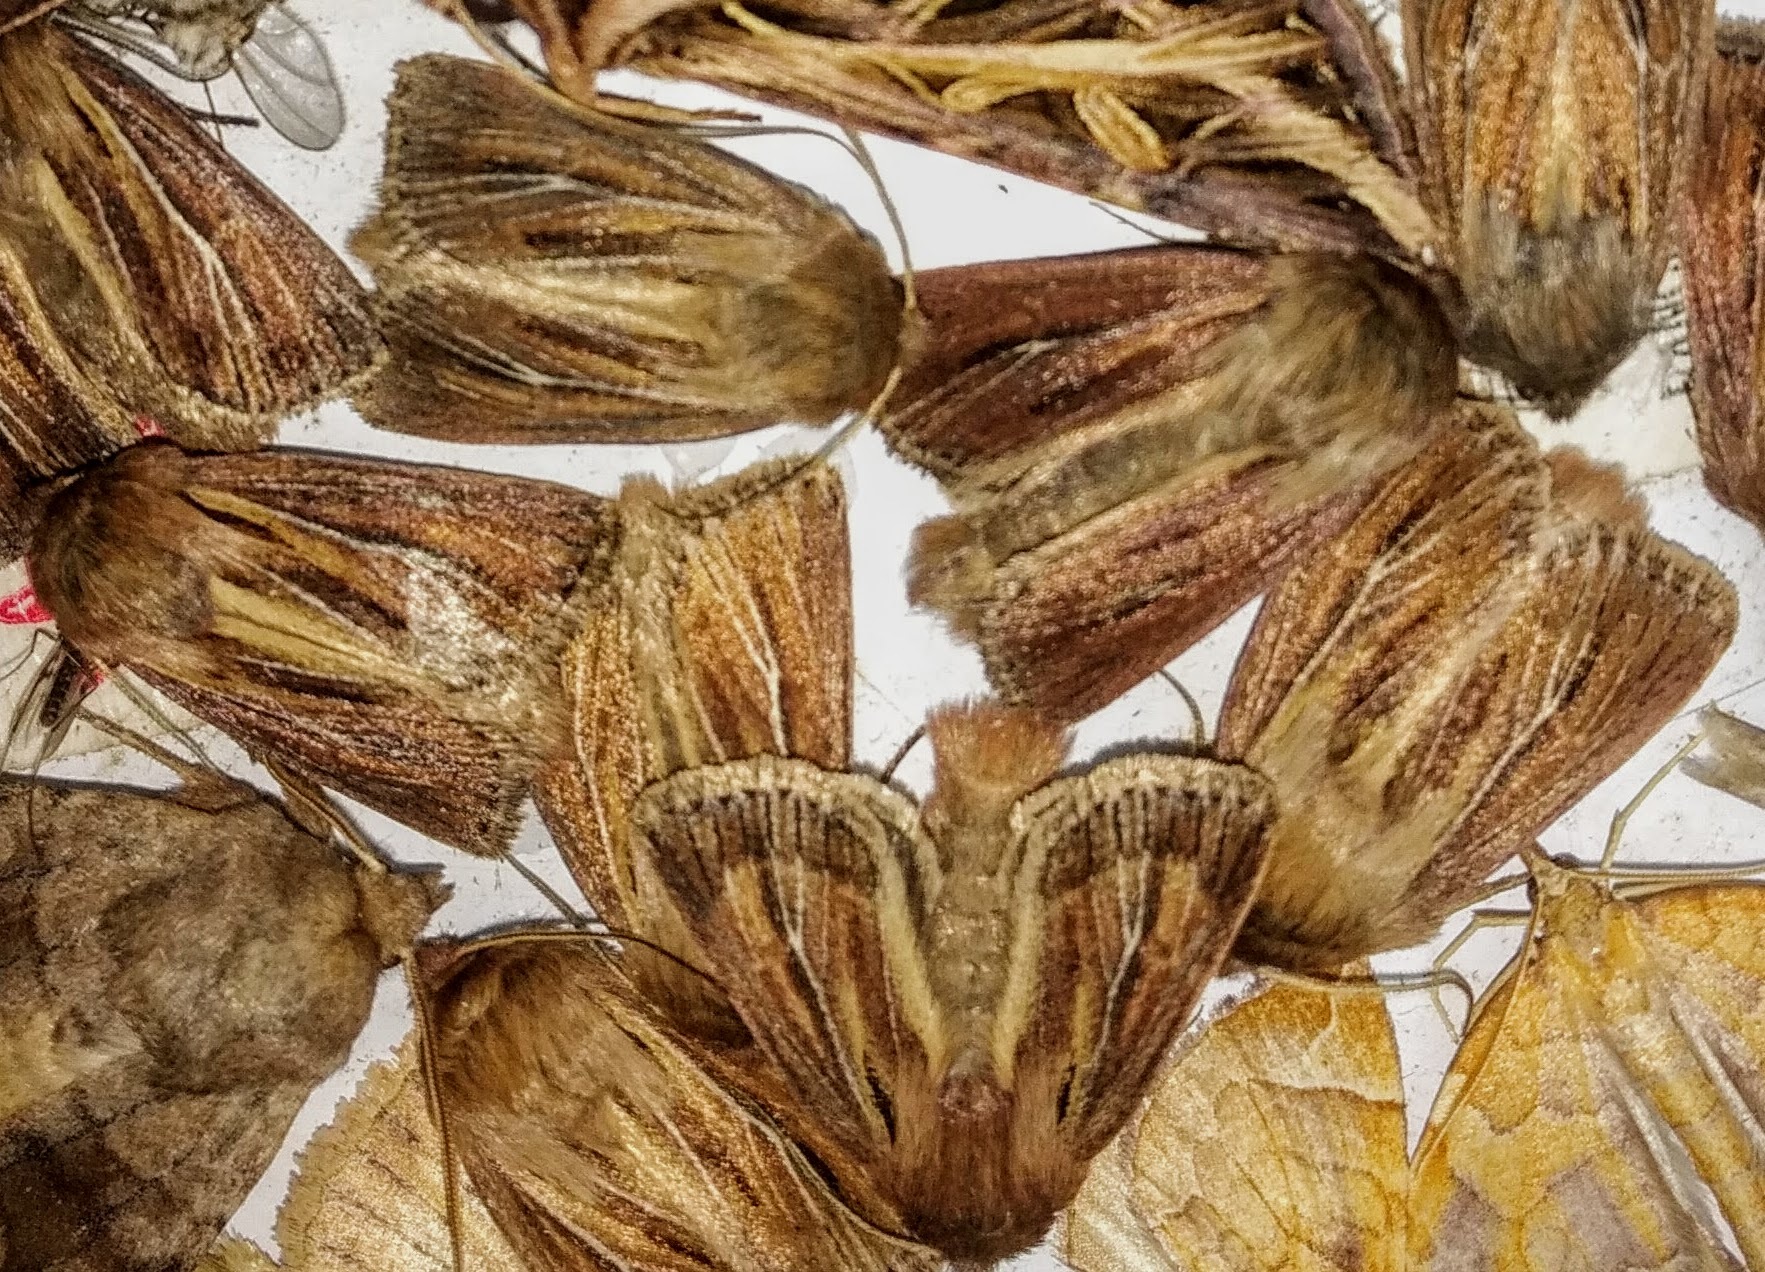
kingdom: Animalia
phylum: Arthropoda
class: Insecta
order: Lepidoptera
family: Noctuidae
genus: Hypocoena
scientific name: Hypocoena basistriga
